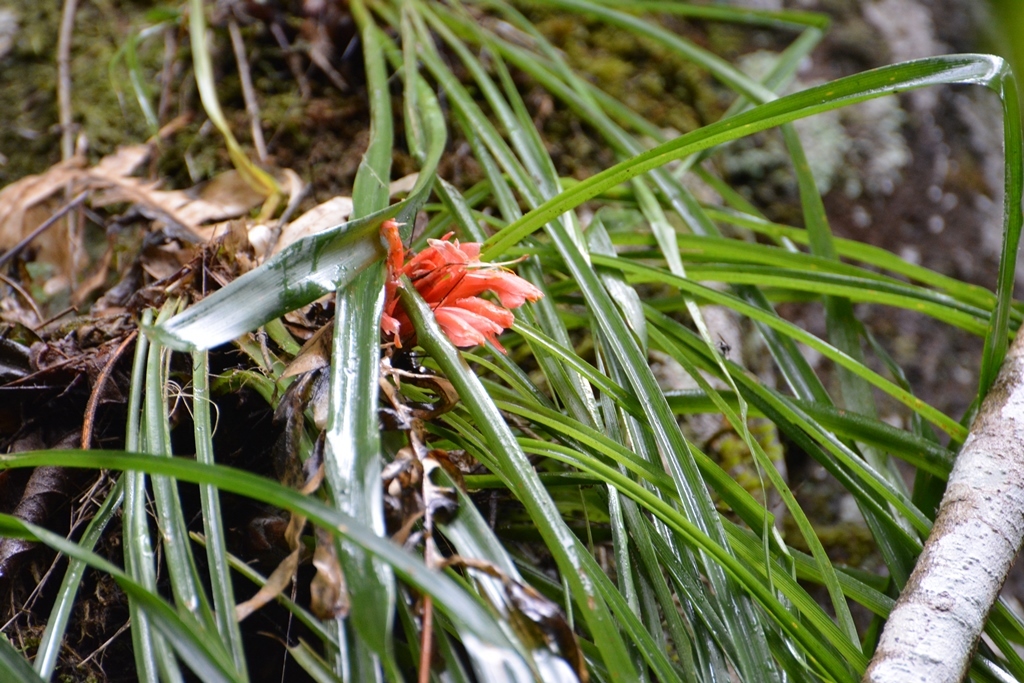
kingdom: Plantae
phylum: Tracheophyta
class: Liliopsida
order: Poales
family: Bromeliaceae
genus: Pitcairnia
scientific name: Pitcairnia heterophylla
